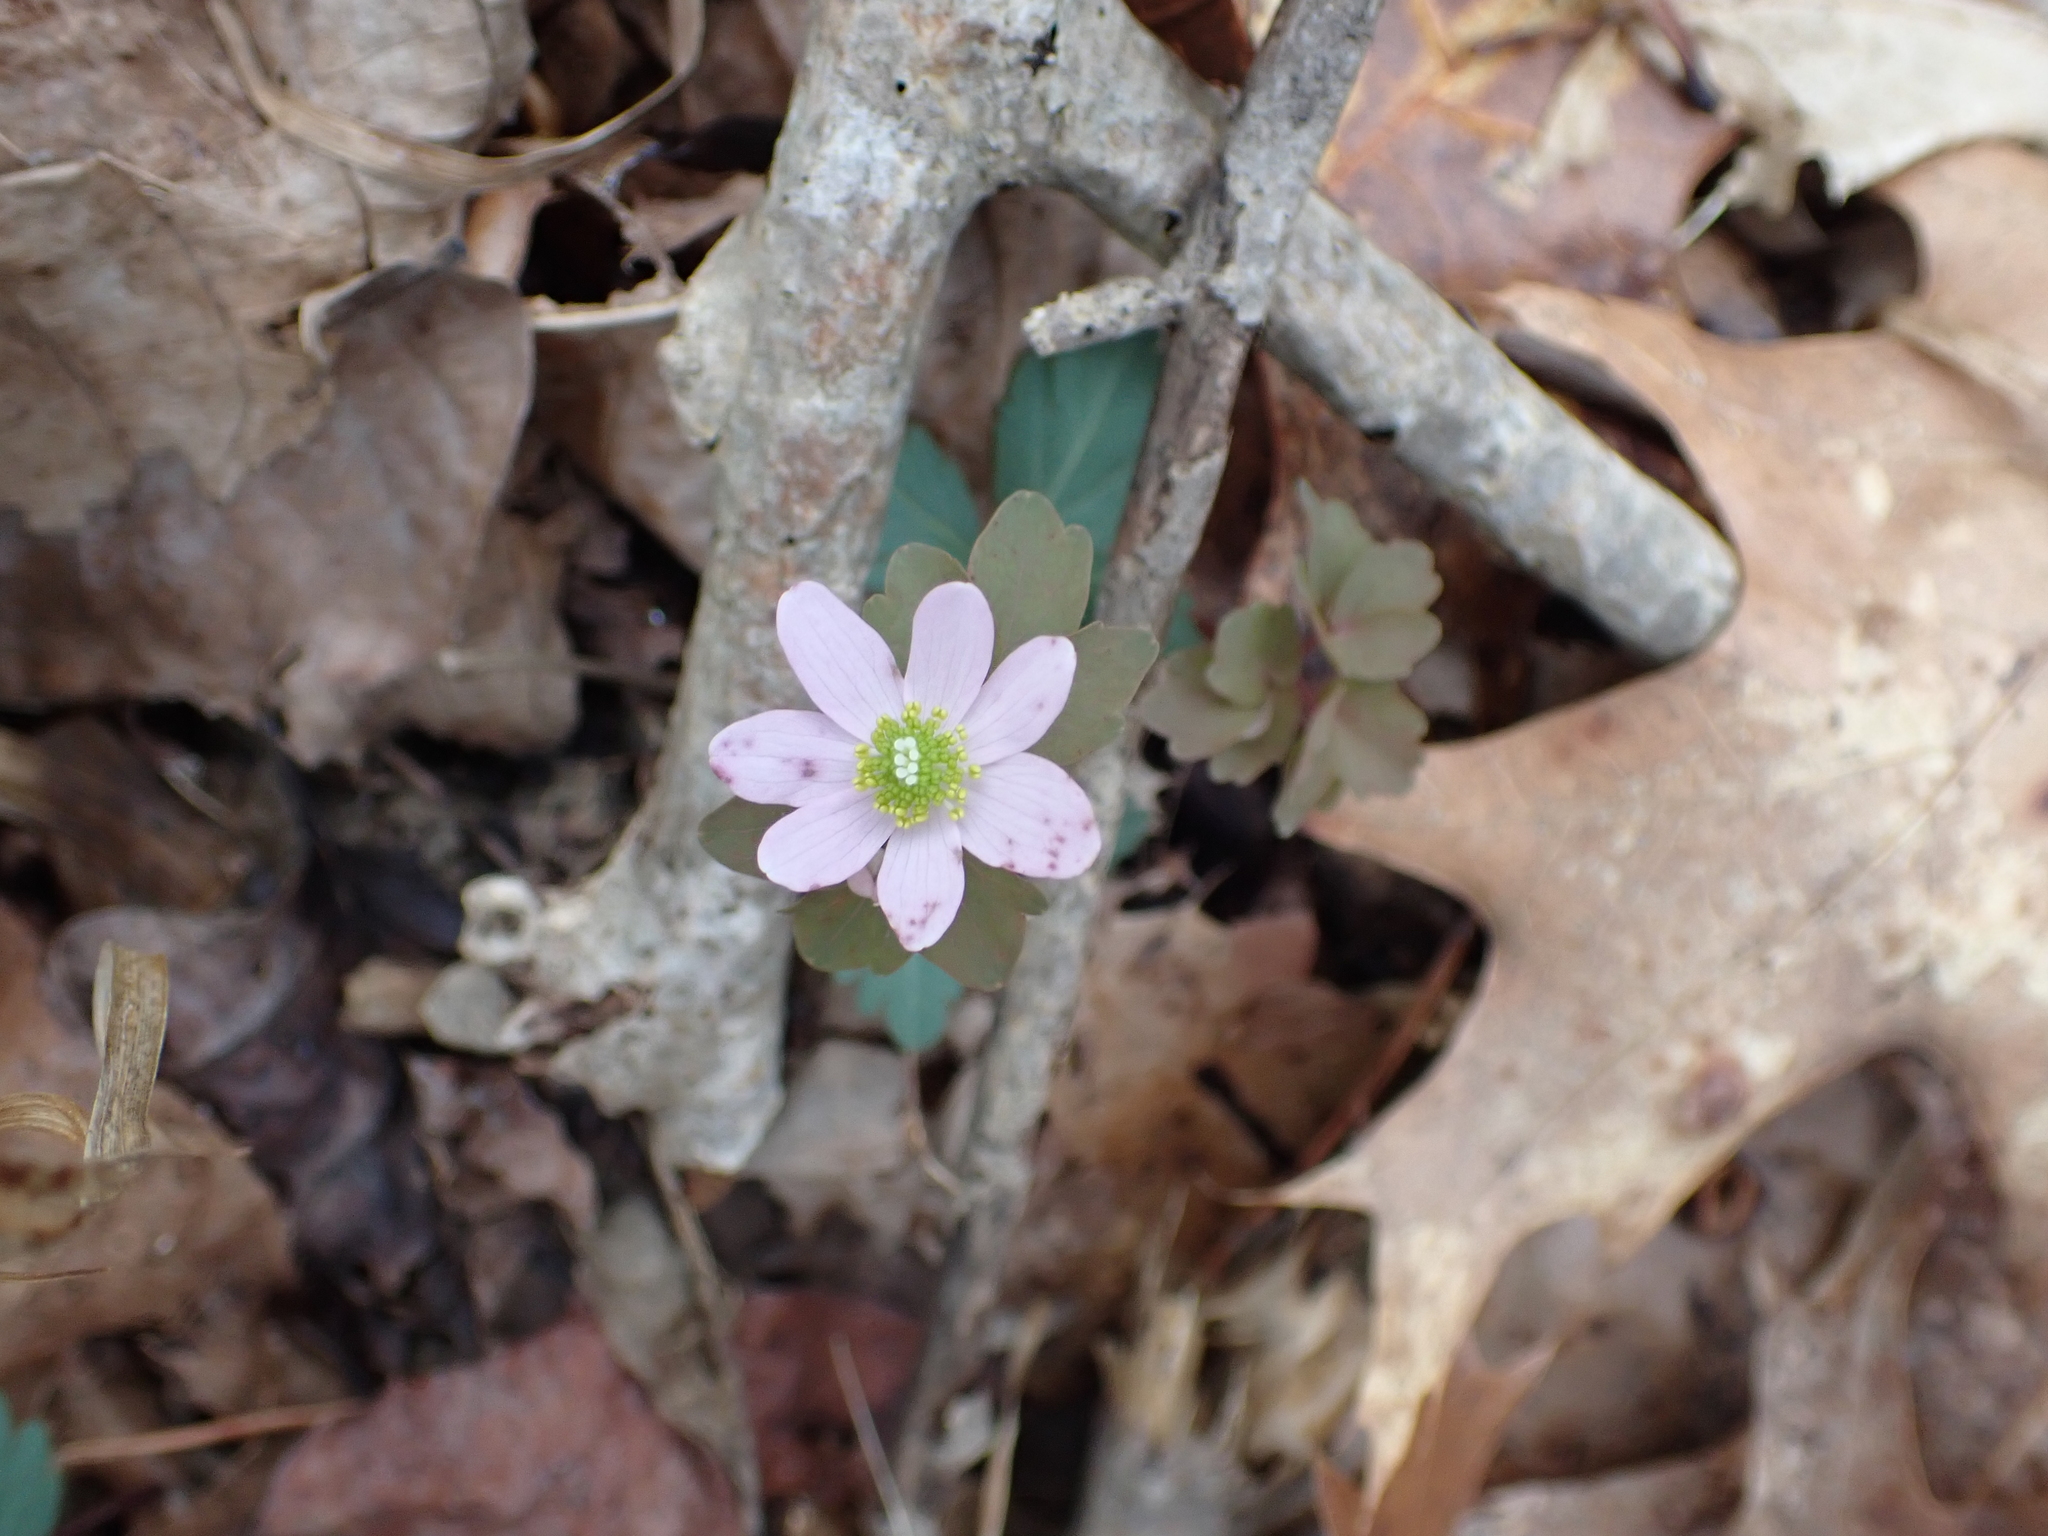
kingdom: Plantae
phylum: Tracheophyta
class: Magnoliopsida
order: Ranunculales
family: Ranunculaceae
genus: Thalictrum
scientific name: Thalictrum thalictroides
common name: Rue-anemone
